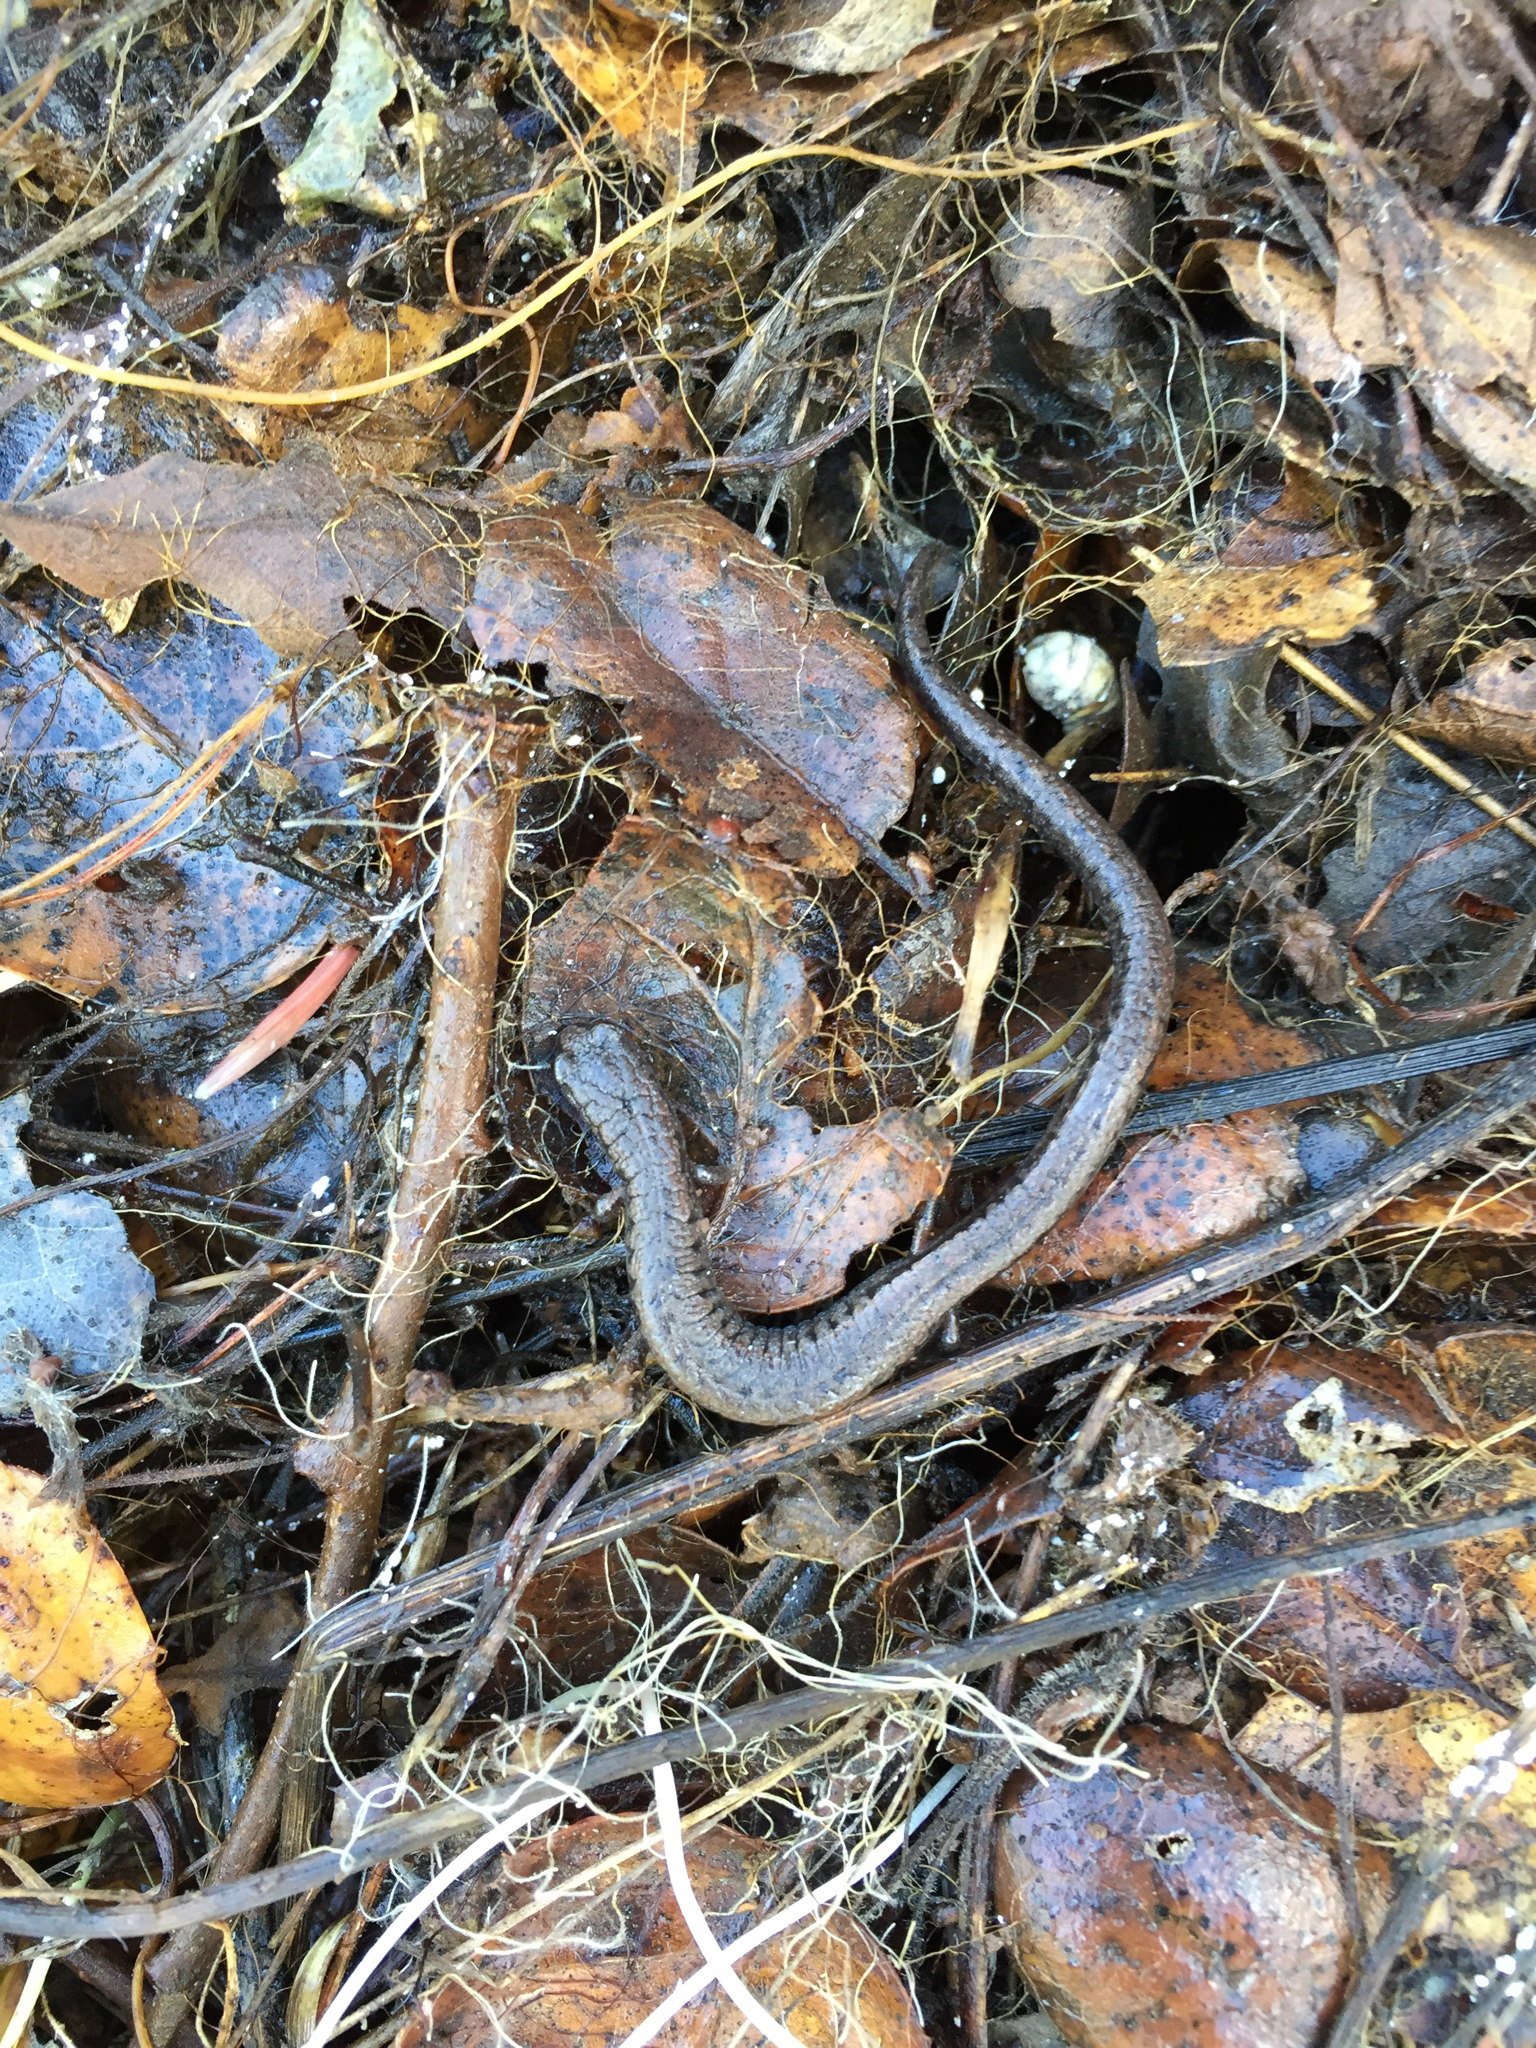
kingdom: Animalia
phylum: Chordata
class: Amphibia
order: Caudata
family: Plethodontidae
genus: Batrachoseps
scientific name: Batrachoseps attenuatus
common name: California slender salamander
